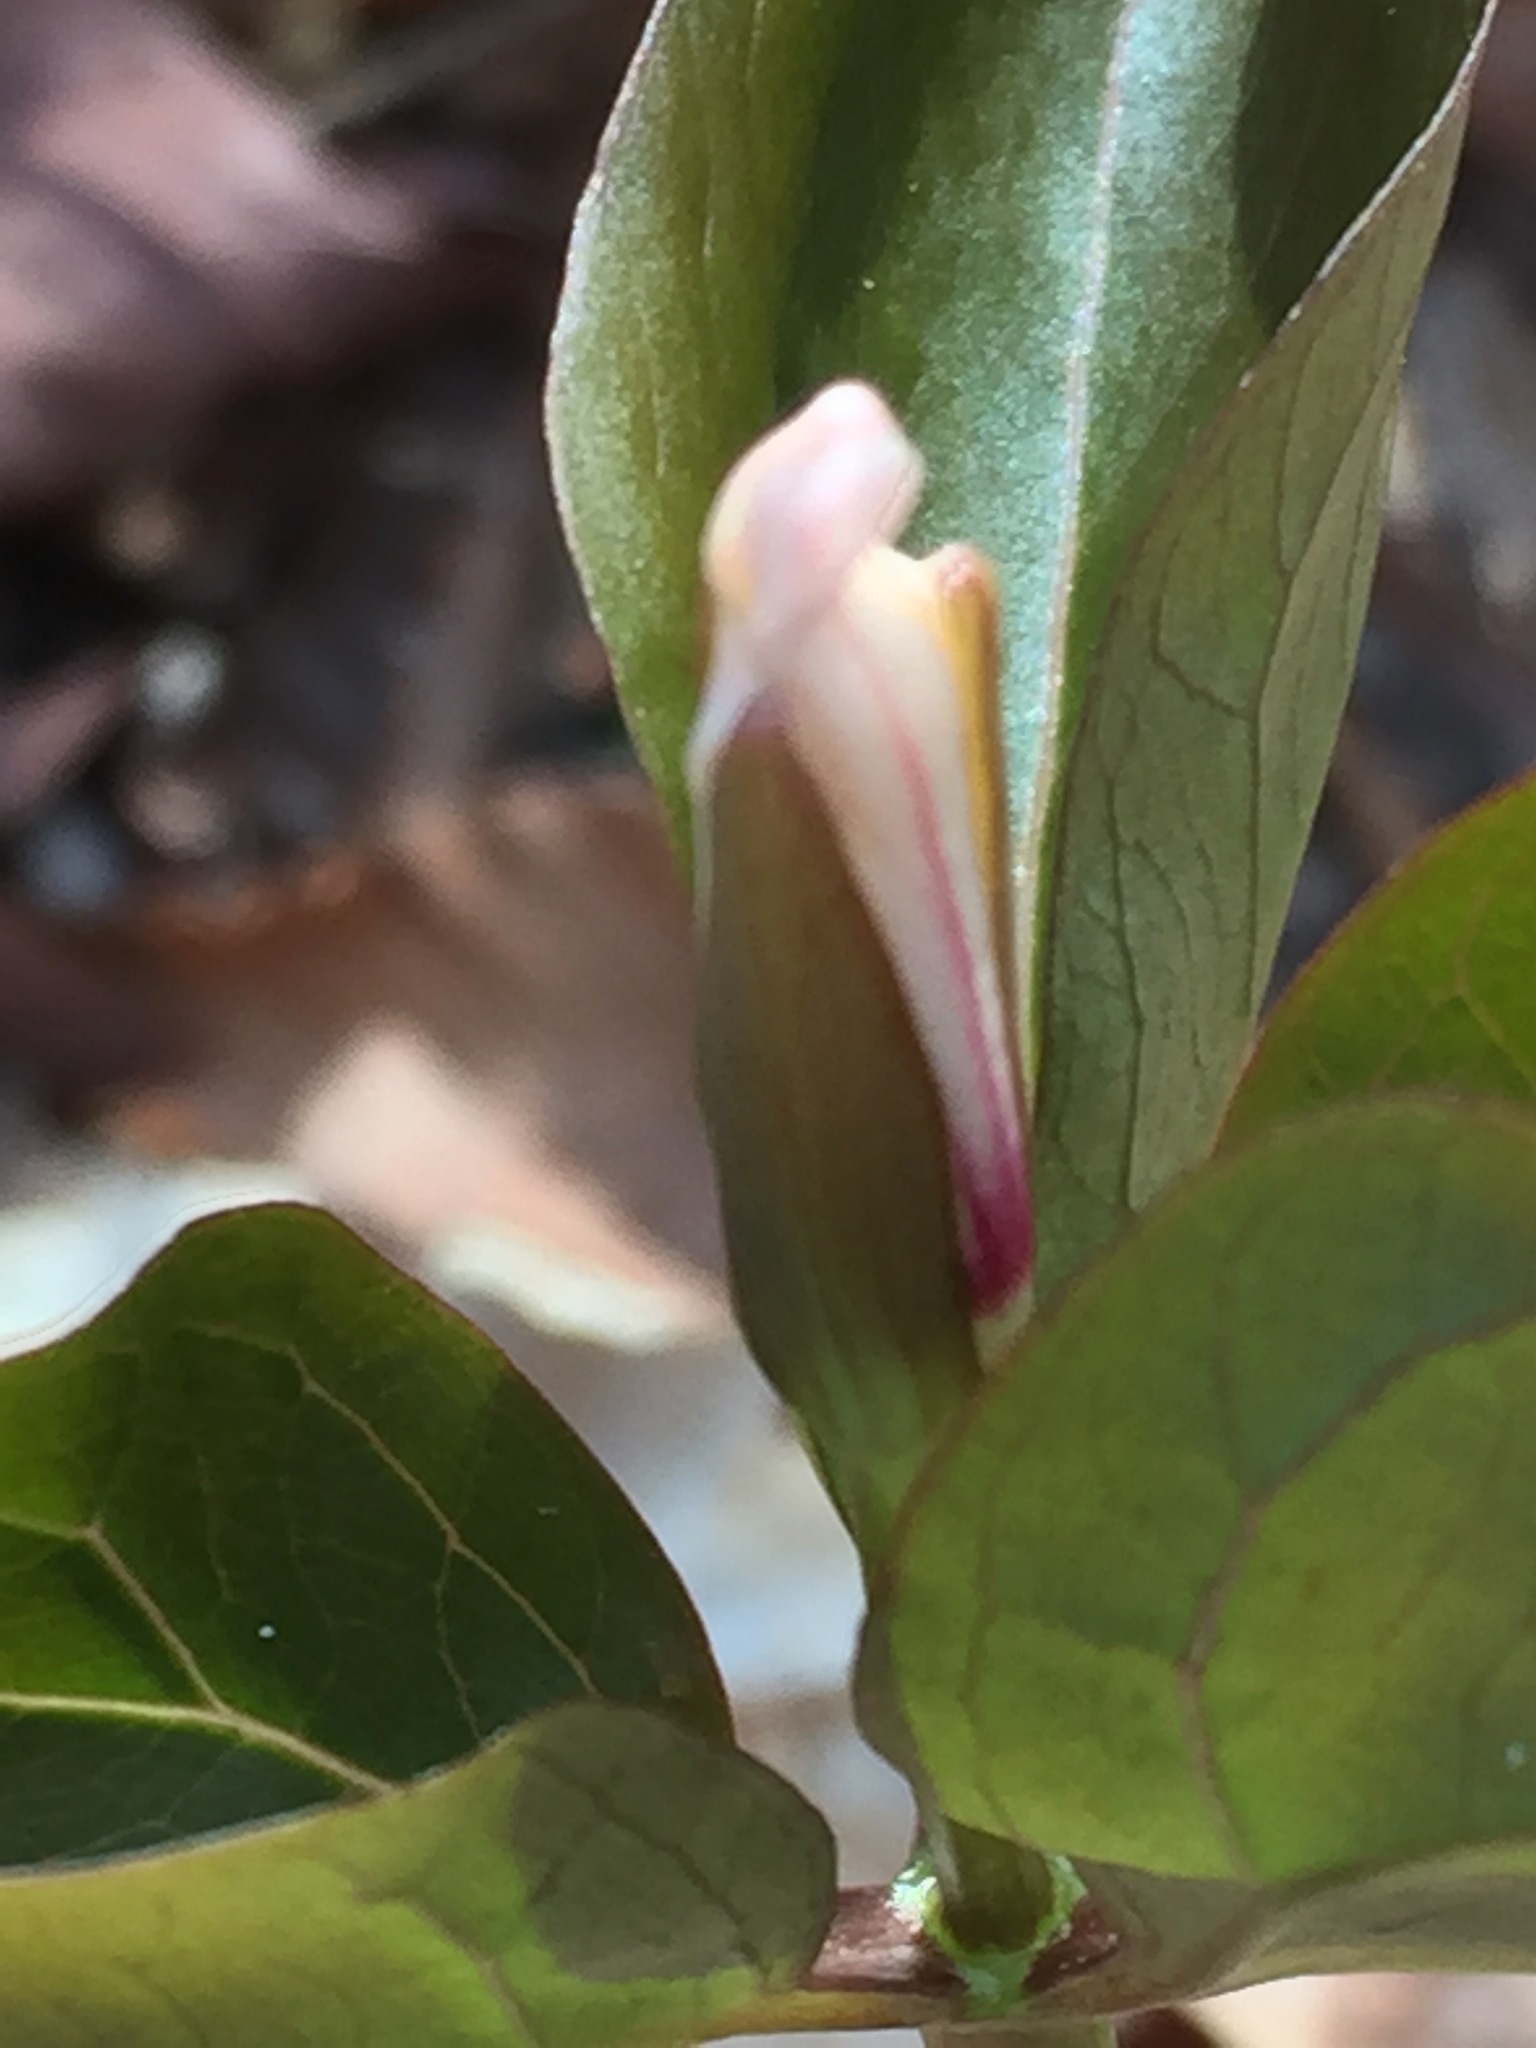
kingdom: Plantae
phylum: Tracheophyta
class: Liliopsida
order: Liliales
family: Melanthiaceae
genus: Trillium
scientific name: Trillium undulatum
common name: Paint trillium
